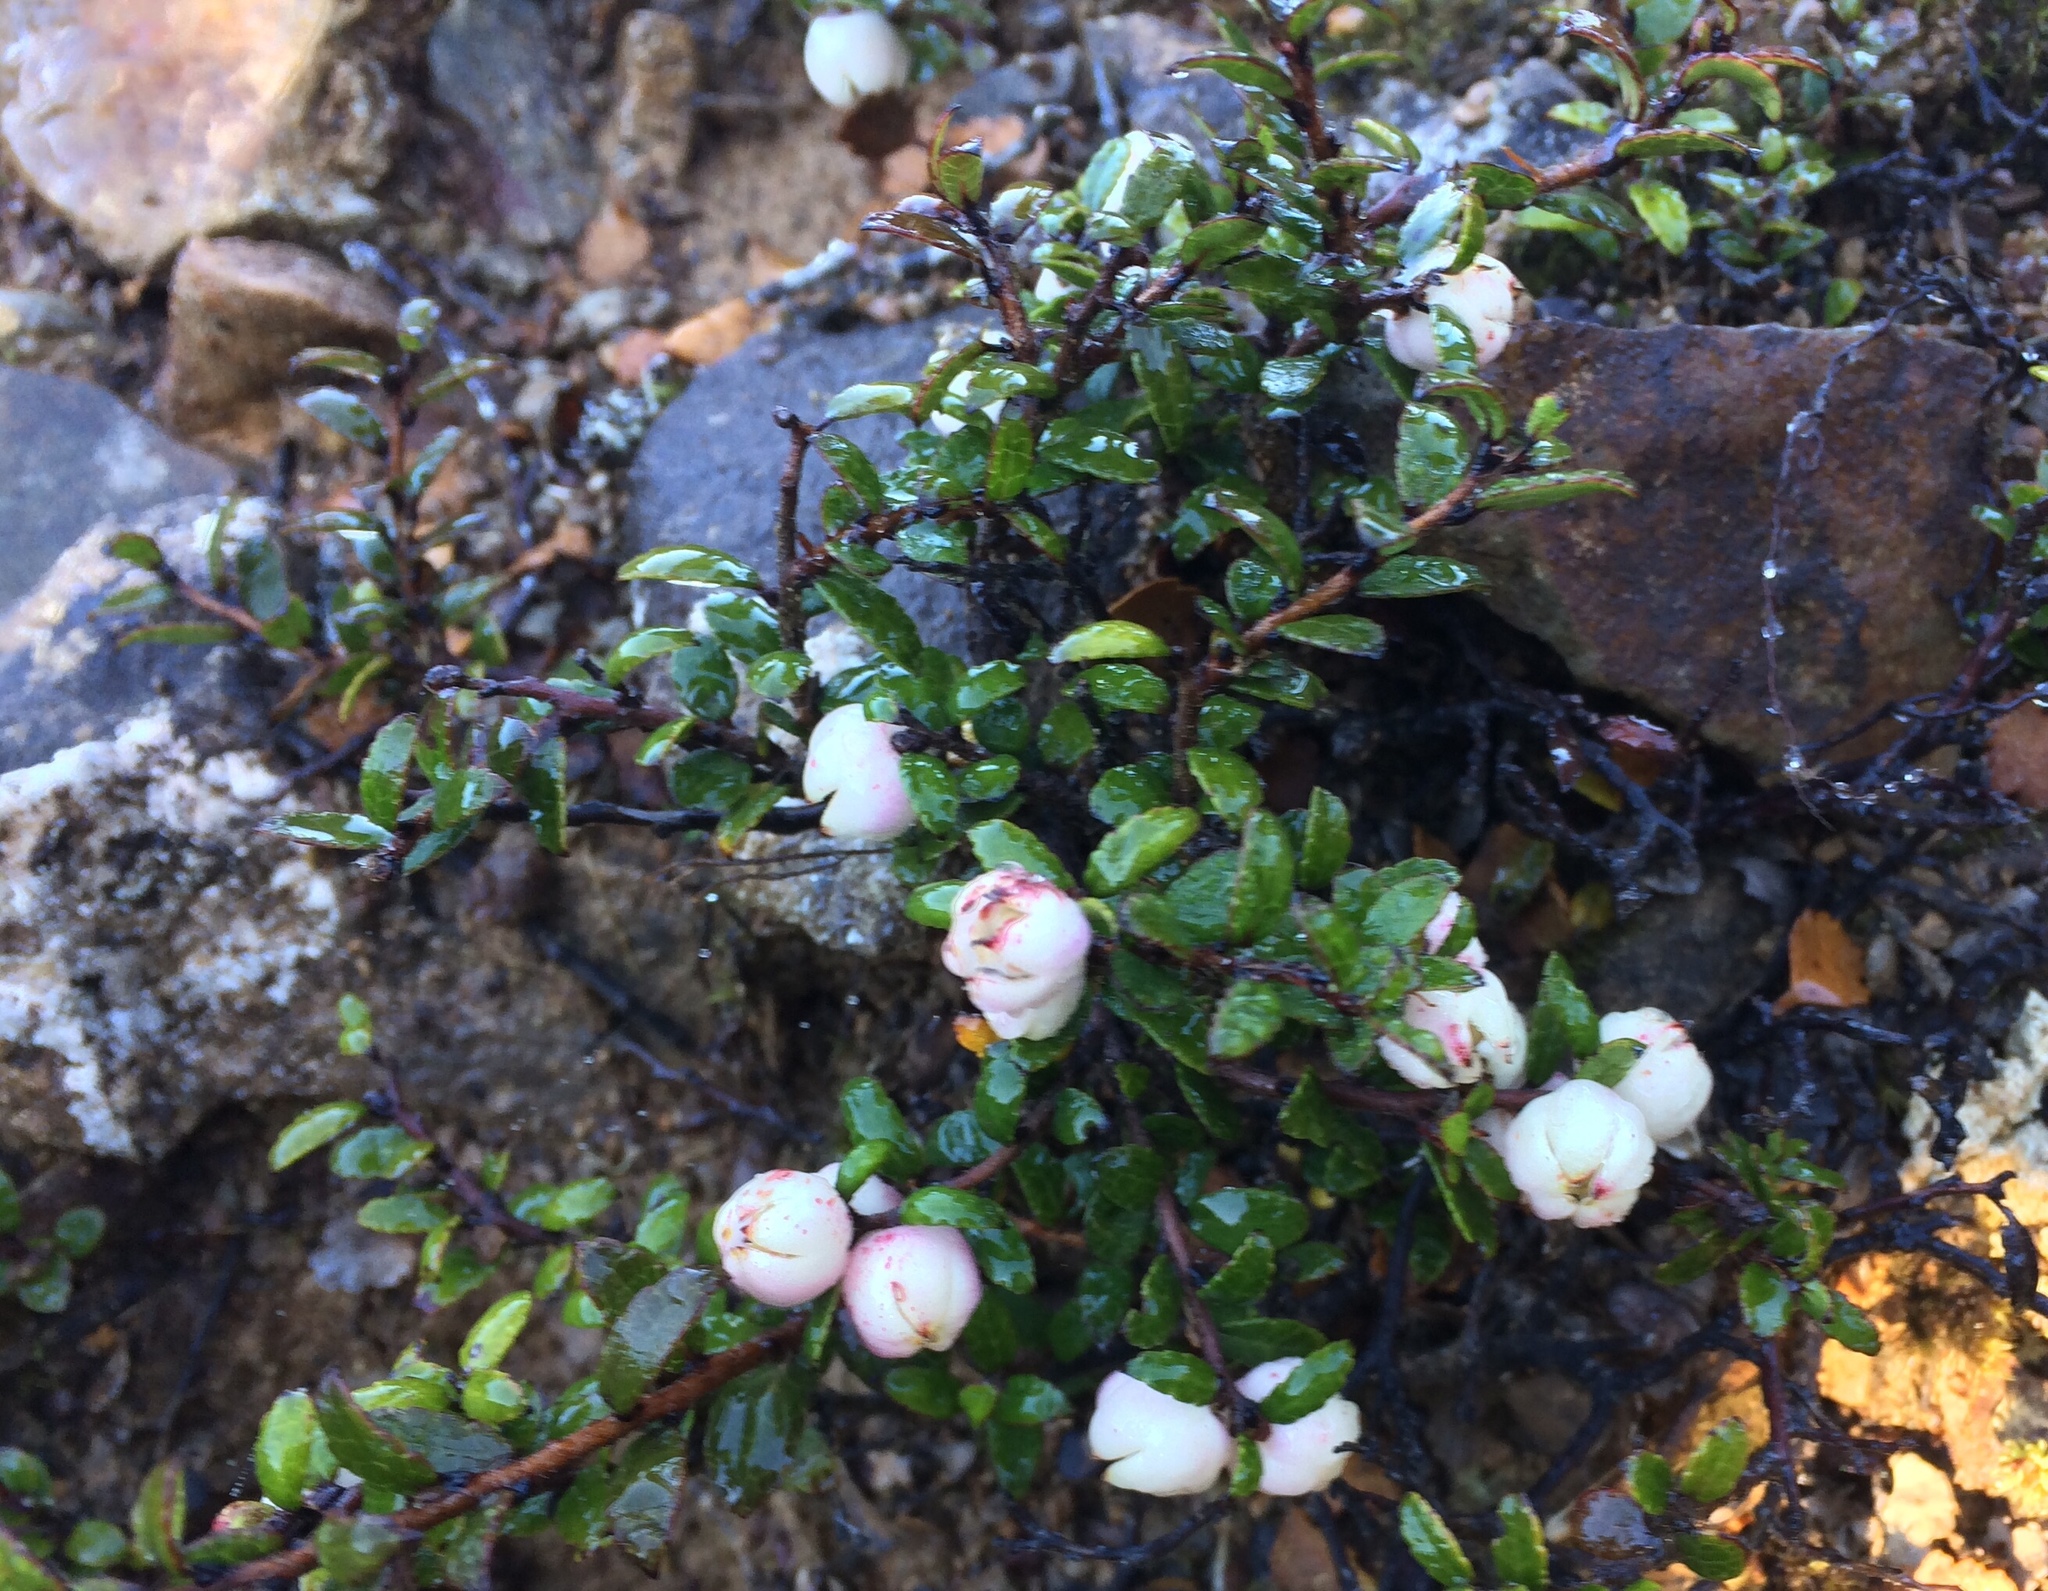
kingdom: Plantae
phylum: Tracheophyta
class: Magnoliopsida
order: Ericales
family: Ericaceae
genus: Gaultheria
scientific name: Gaultheria depressa
